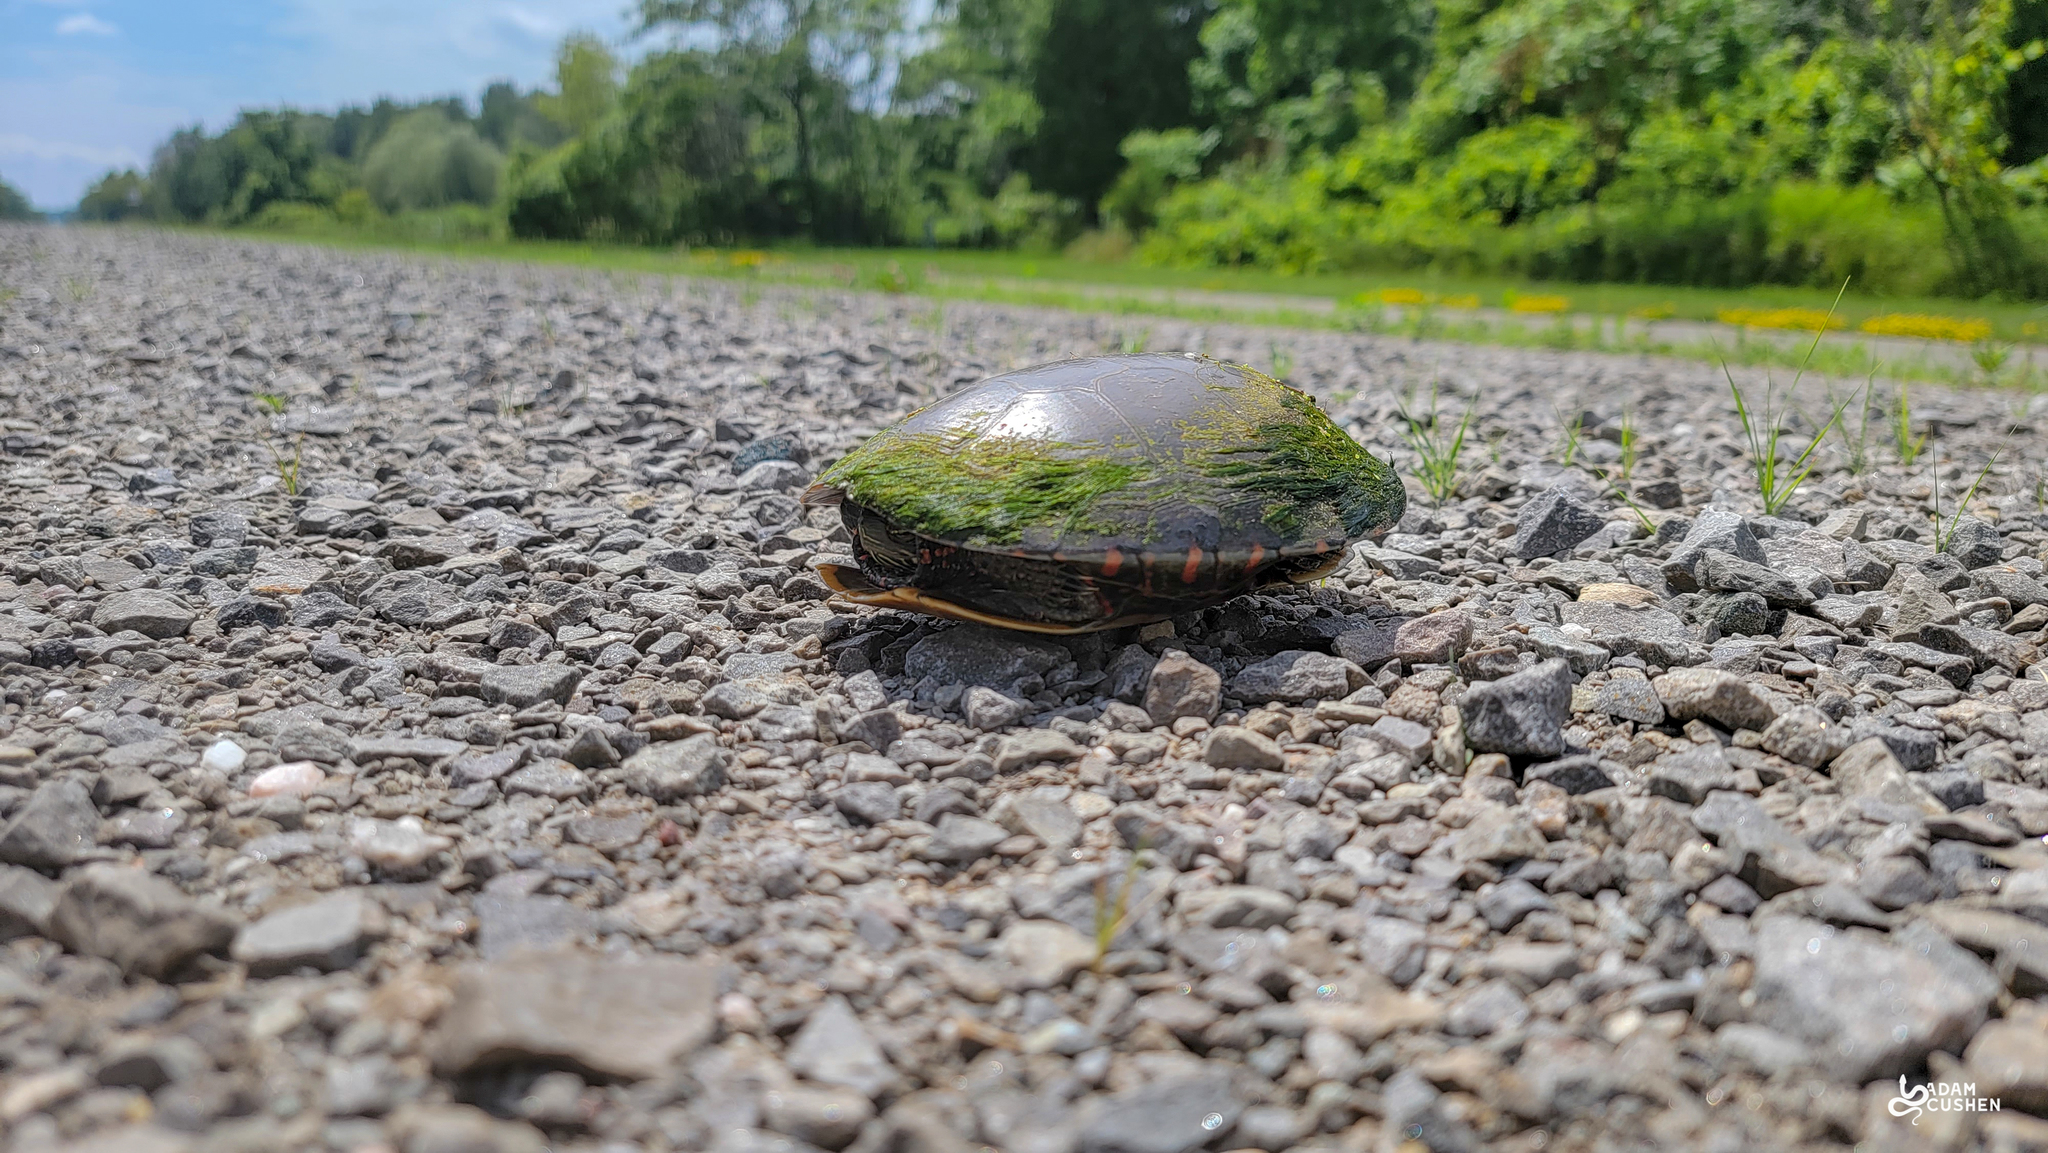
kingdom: Animalia
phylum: Chordata
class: Testudines
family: Emydidae
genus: Chrysemys
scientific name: Chrysemys picta
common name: Painted turtle
